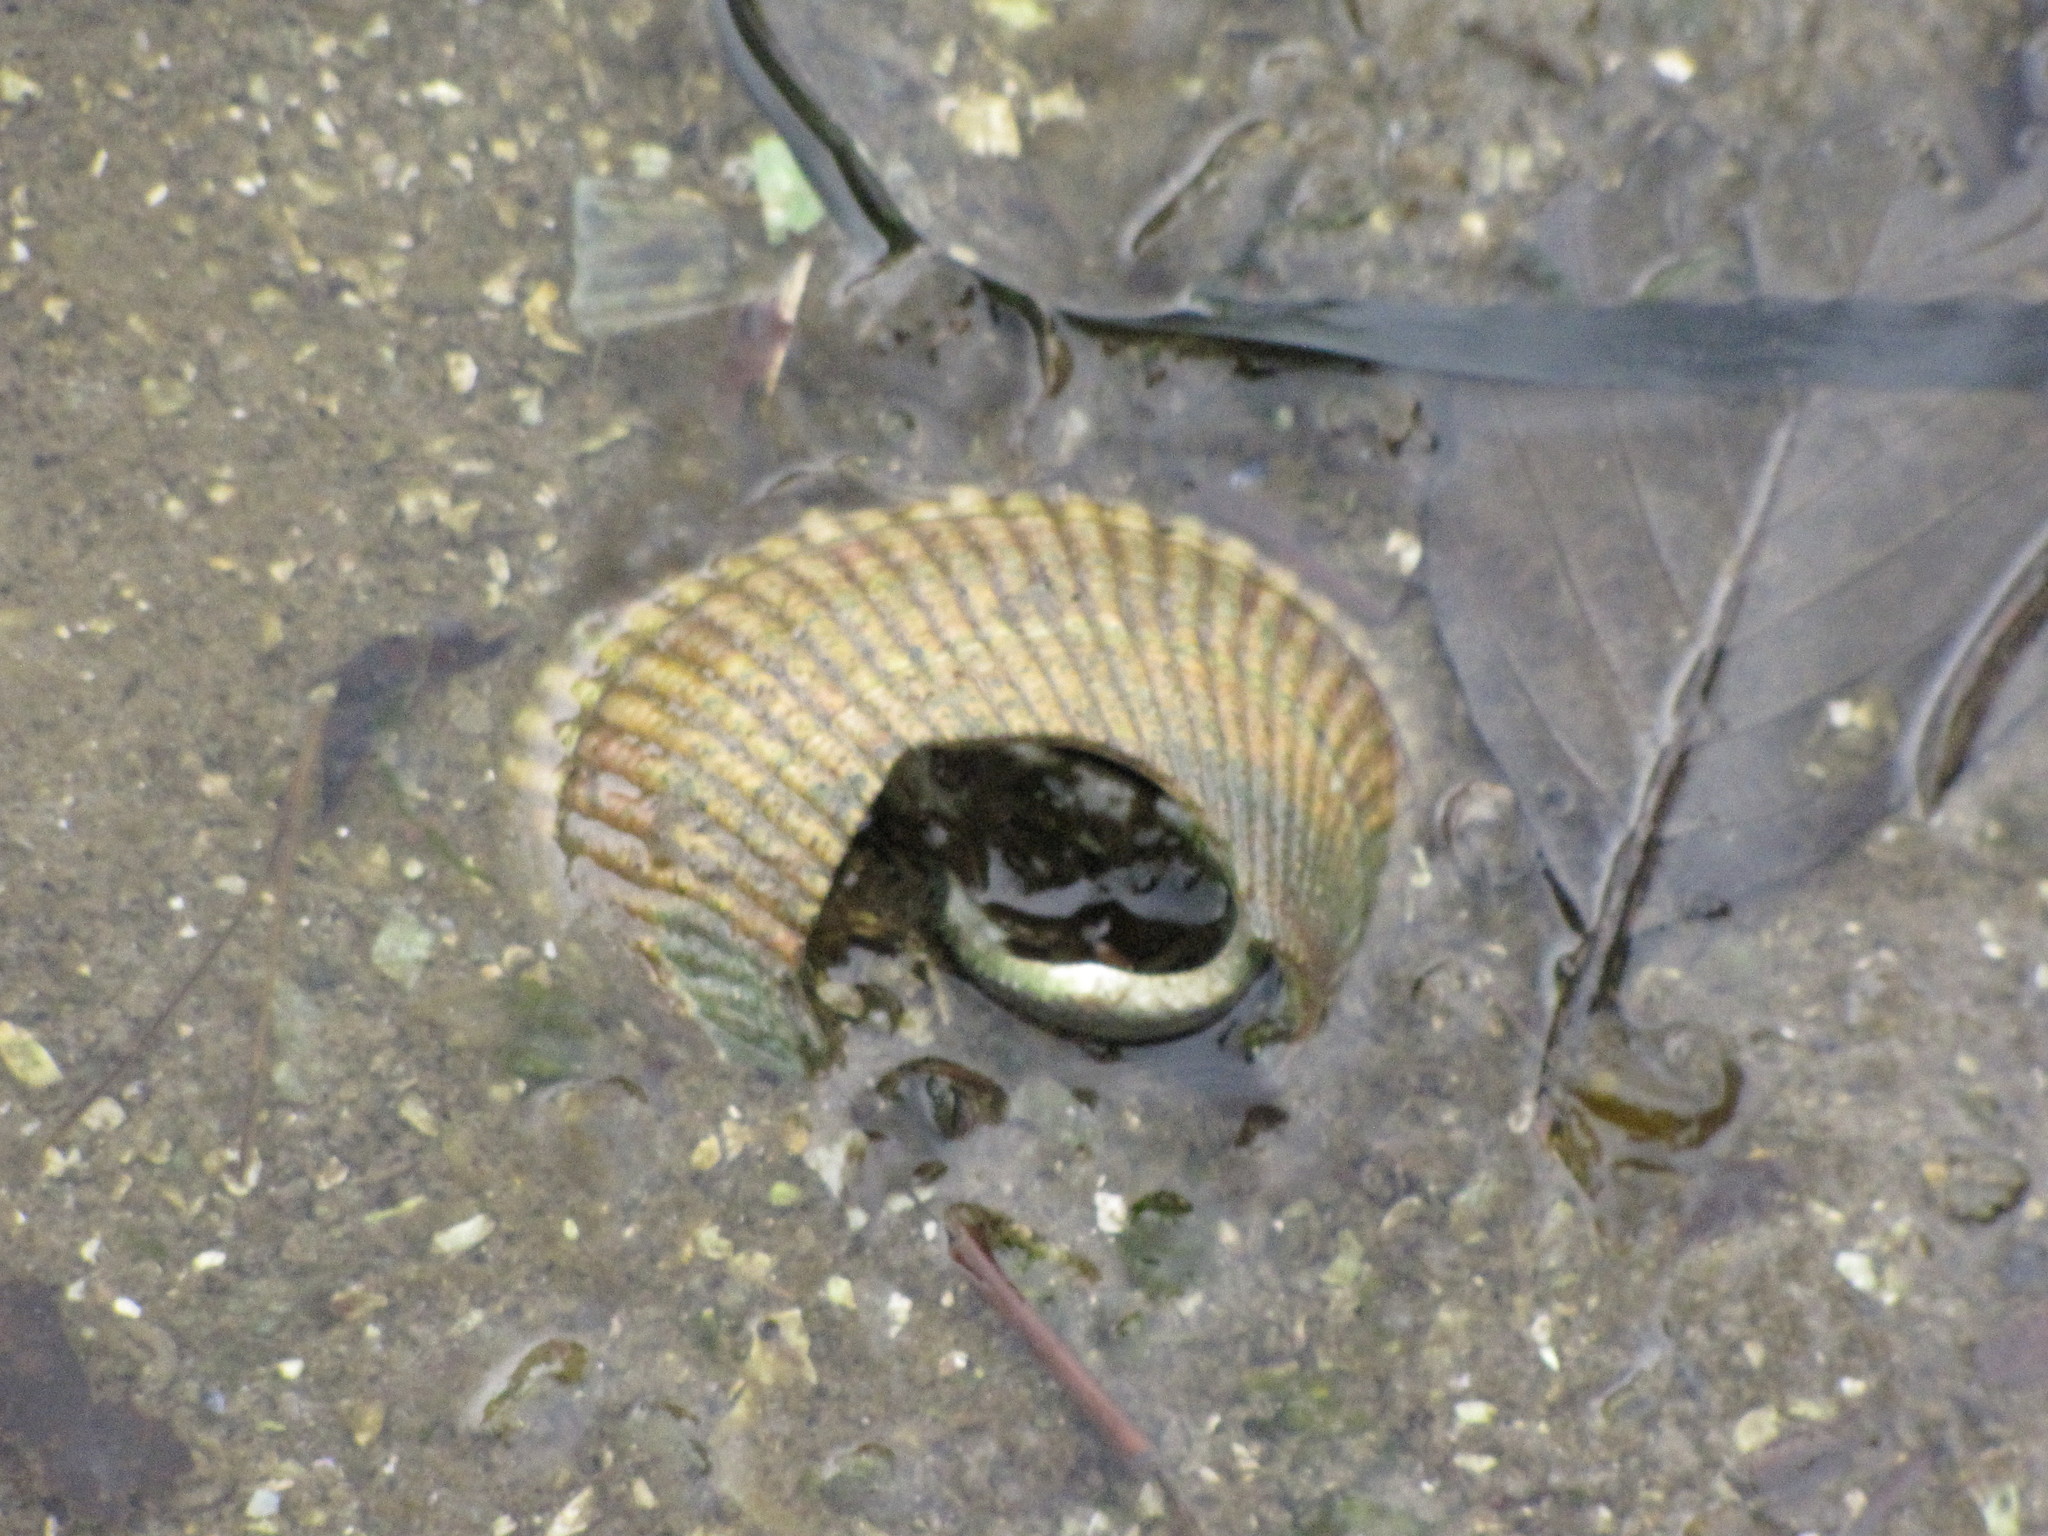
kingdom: Animalia
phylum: Mollusca
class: Bivalvia
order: Cardiida
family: Cardiidae
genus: Clinocardium
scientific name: Clinocardium nuttallii
